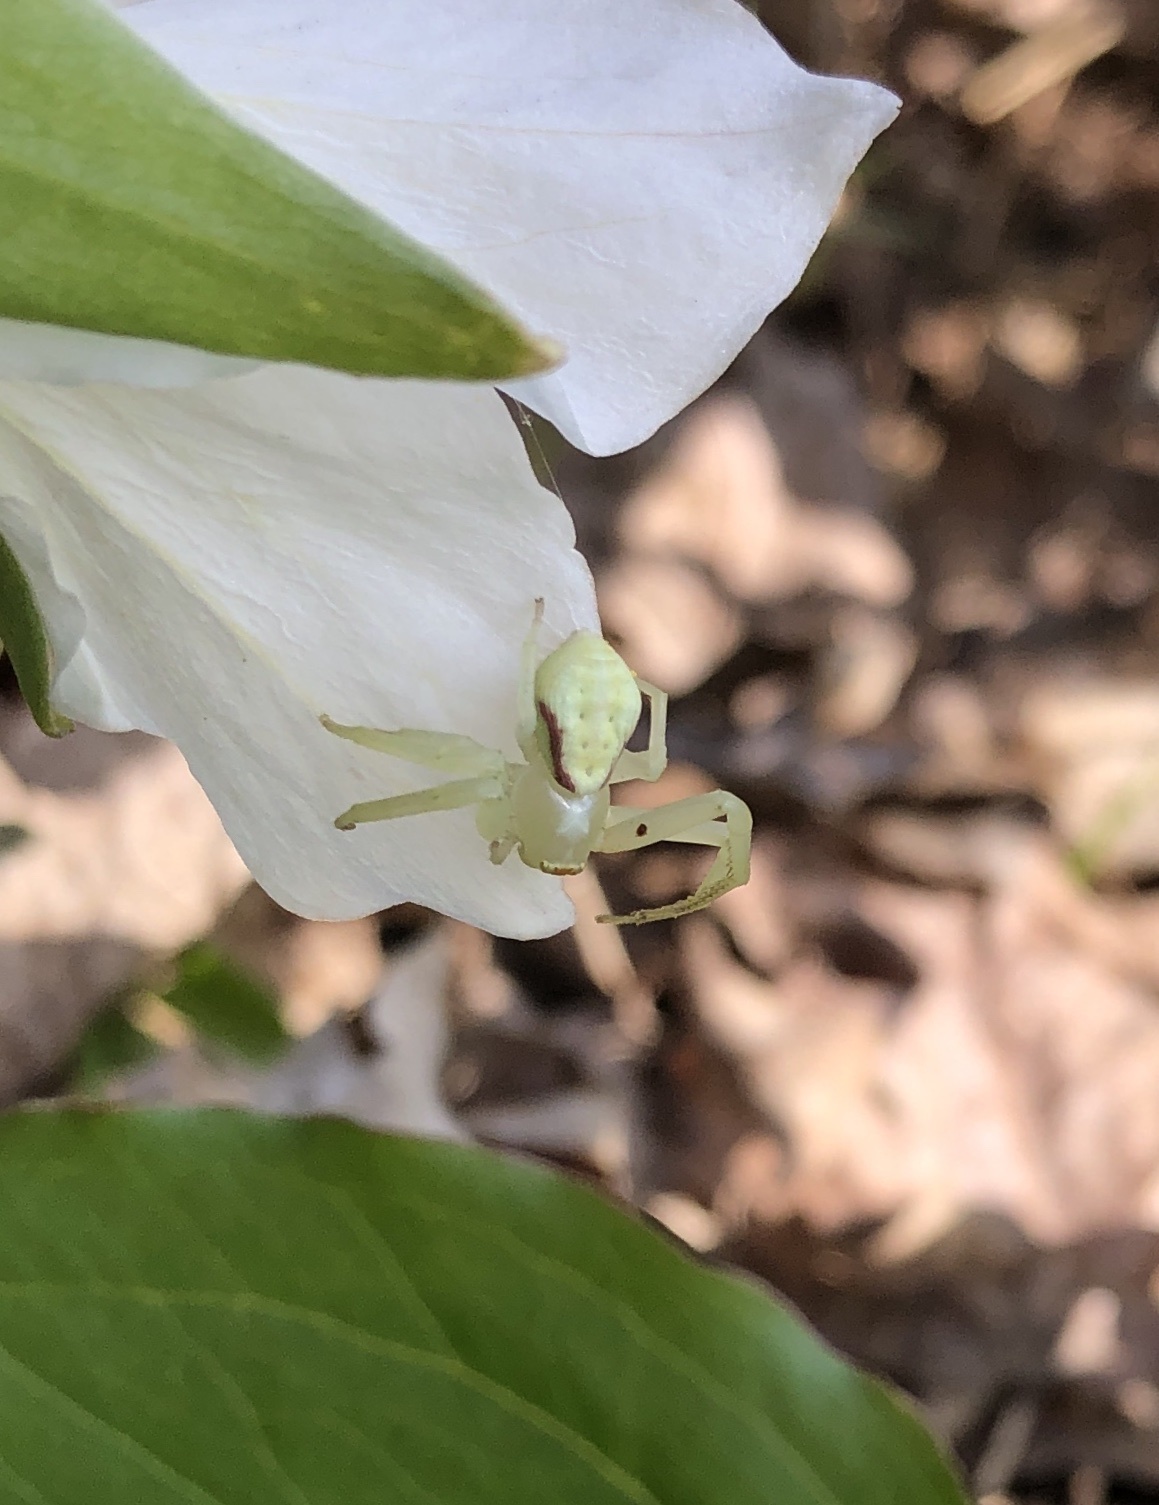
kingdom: Animalia
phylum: Arthropoda
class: Arachnida
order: Araneae
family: Thomisidae
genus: Misumena
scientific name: Misumena vatia
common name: Goldenrod crab spider
